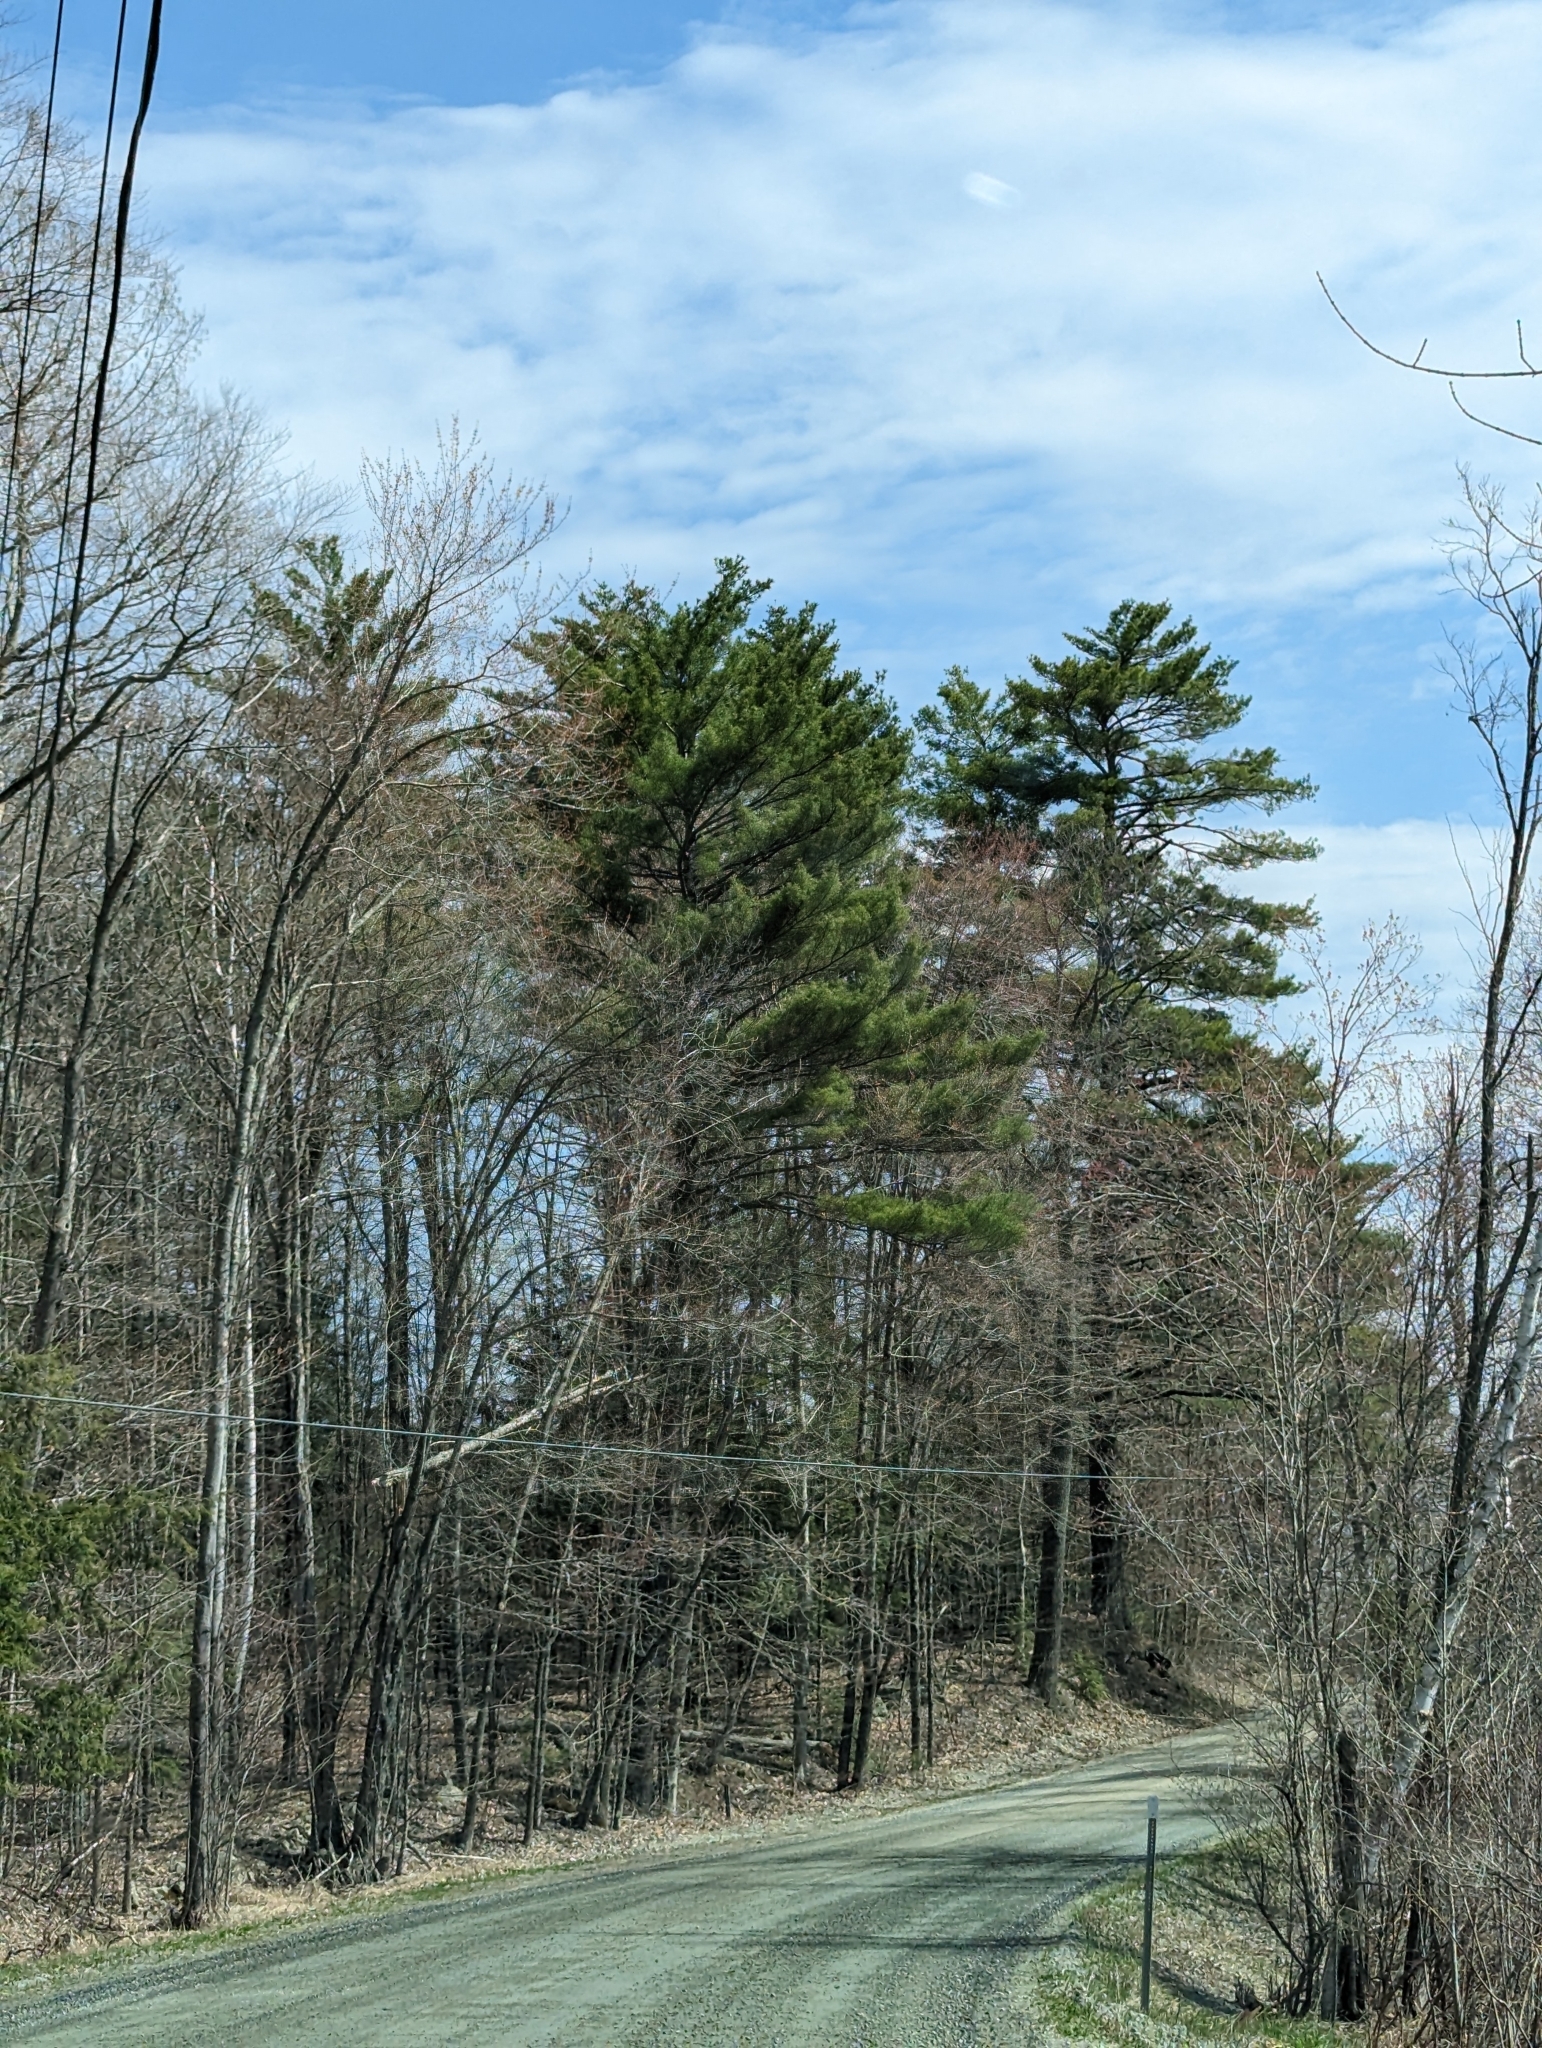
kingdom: Plantae
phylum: Tracheophyta
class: Pinopsida
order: Pinales
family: Pinaceae
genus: Pinus
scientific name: Pinus strobus
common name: Weymouth pine
